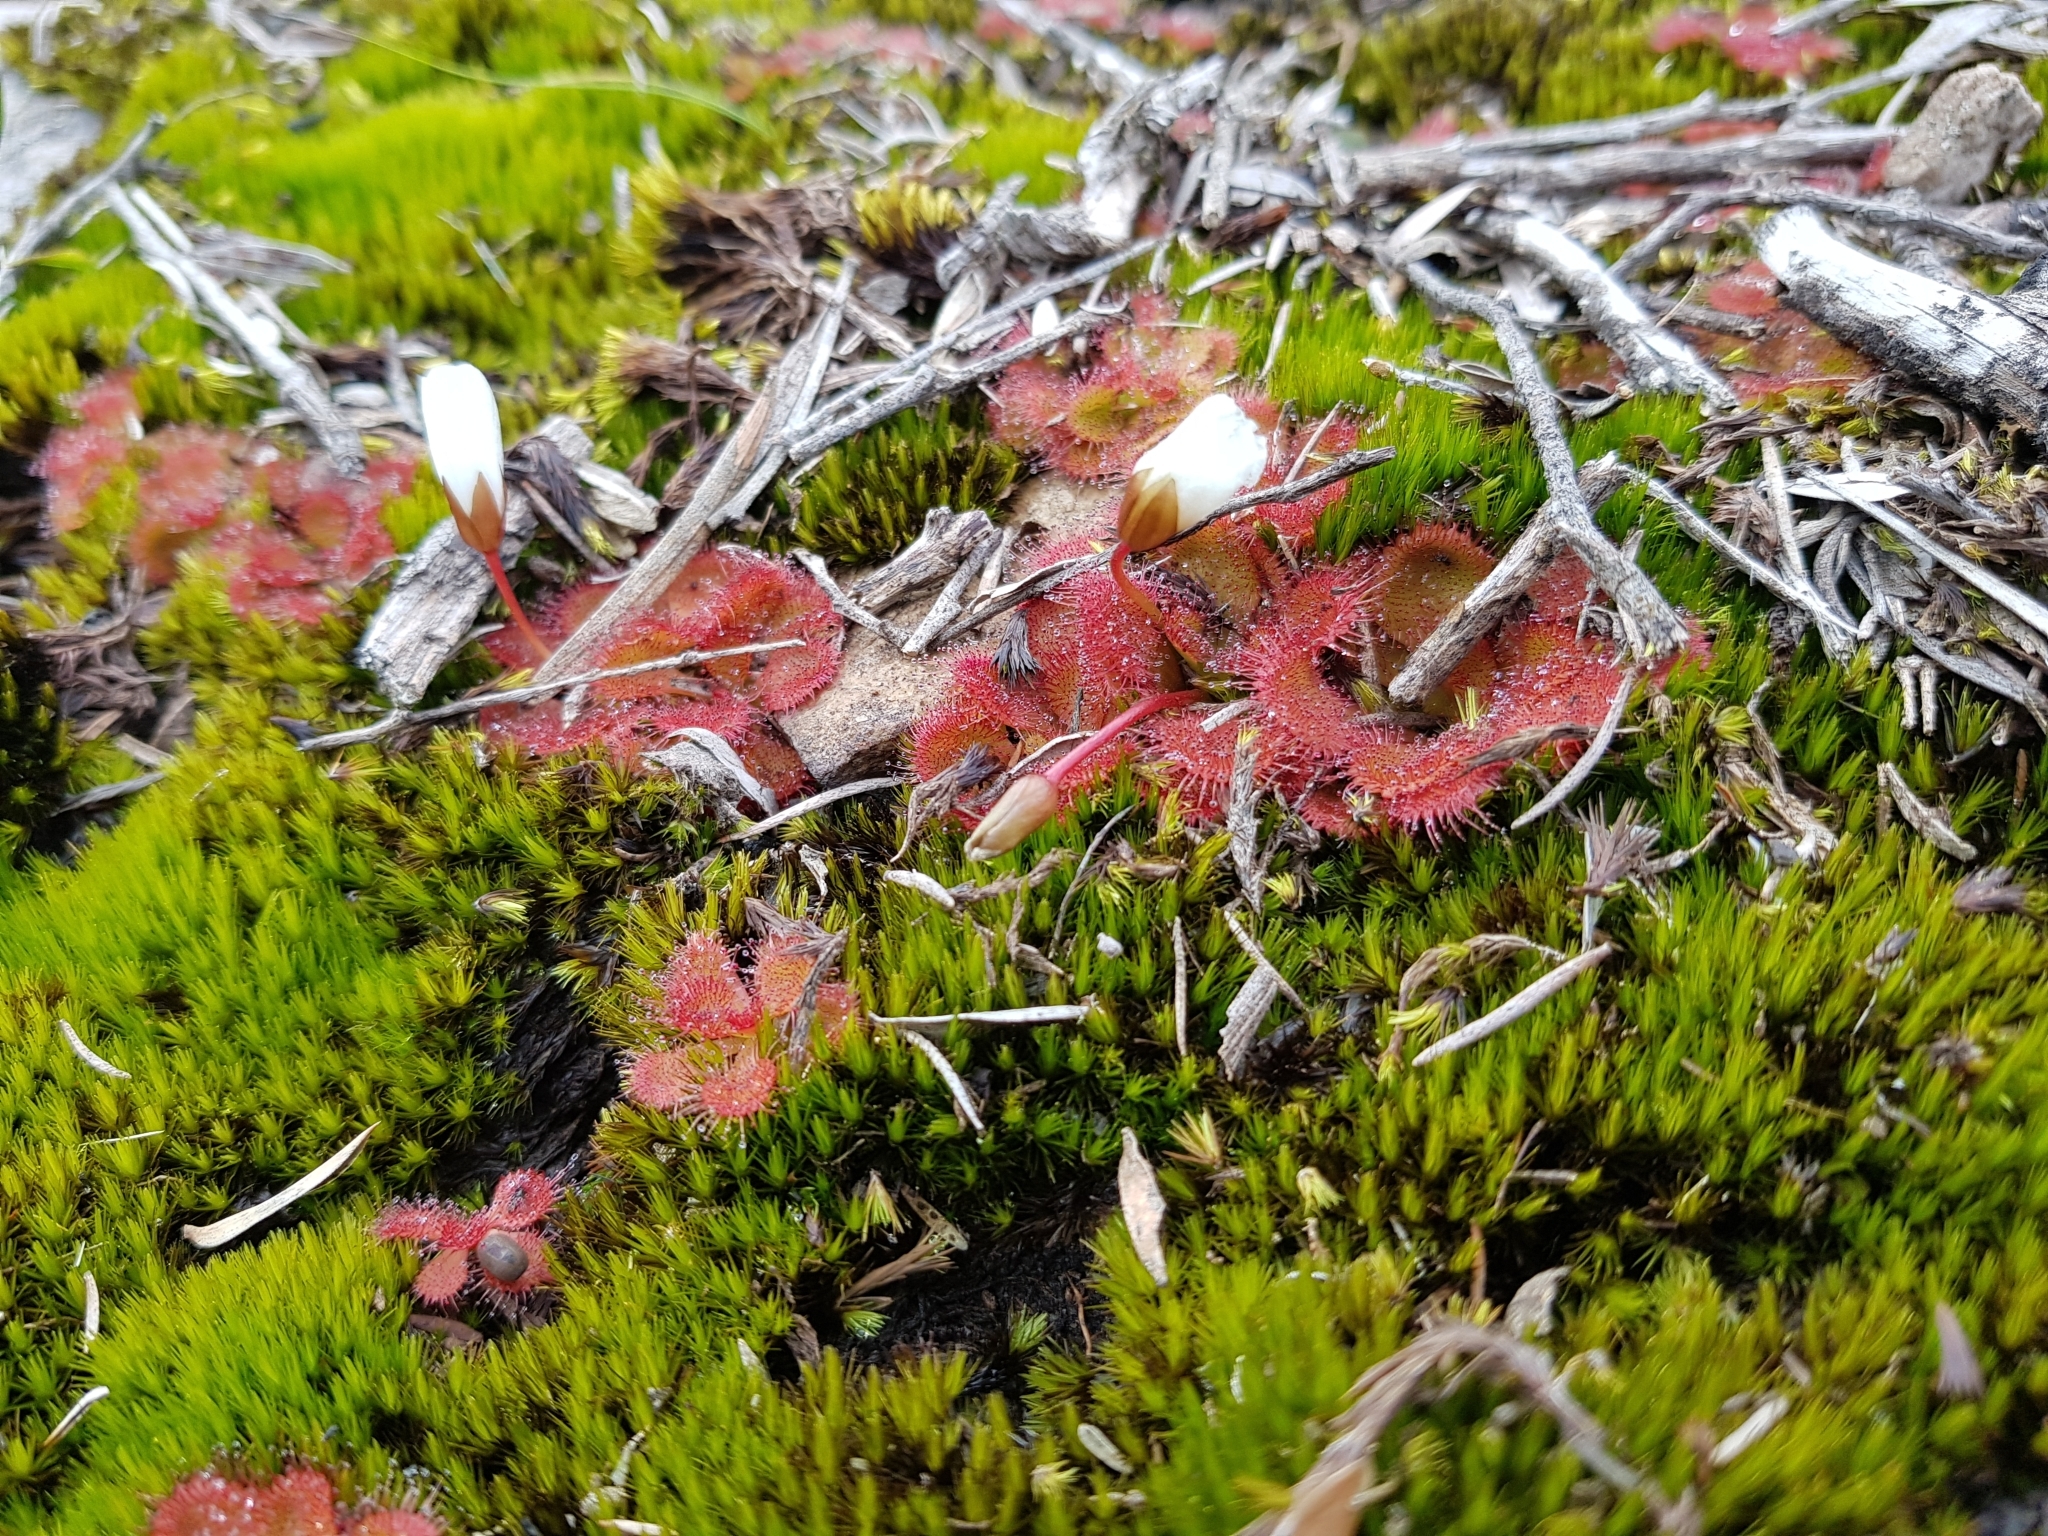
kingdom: Plantae
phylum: Tracheophyta
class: Magnoliopsida
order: Caryophyllales
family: Droseraceae
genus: Drosera
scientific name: Drosera aberrans
